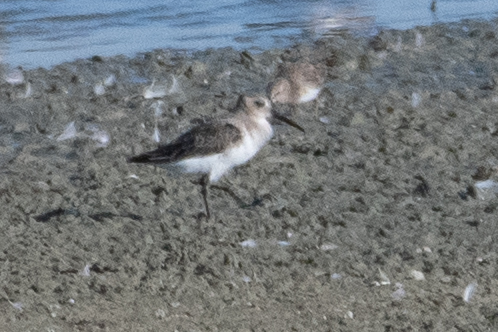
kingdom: Animalia
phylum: Chordata
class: Aves
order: Charadriiformes
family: Scolopacidae
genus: Calidris
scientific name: Calidris alpina
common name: Dunlin
